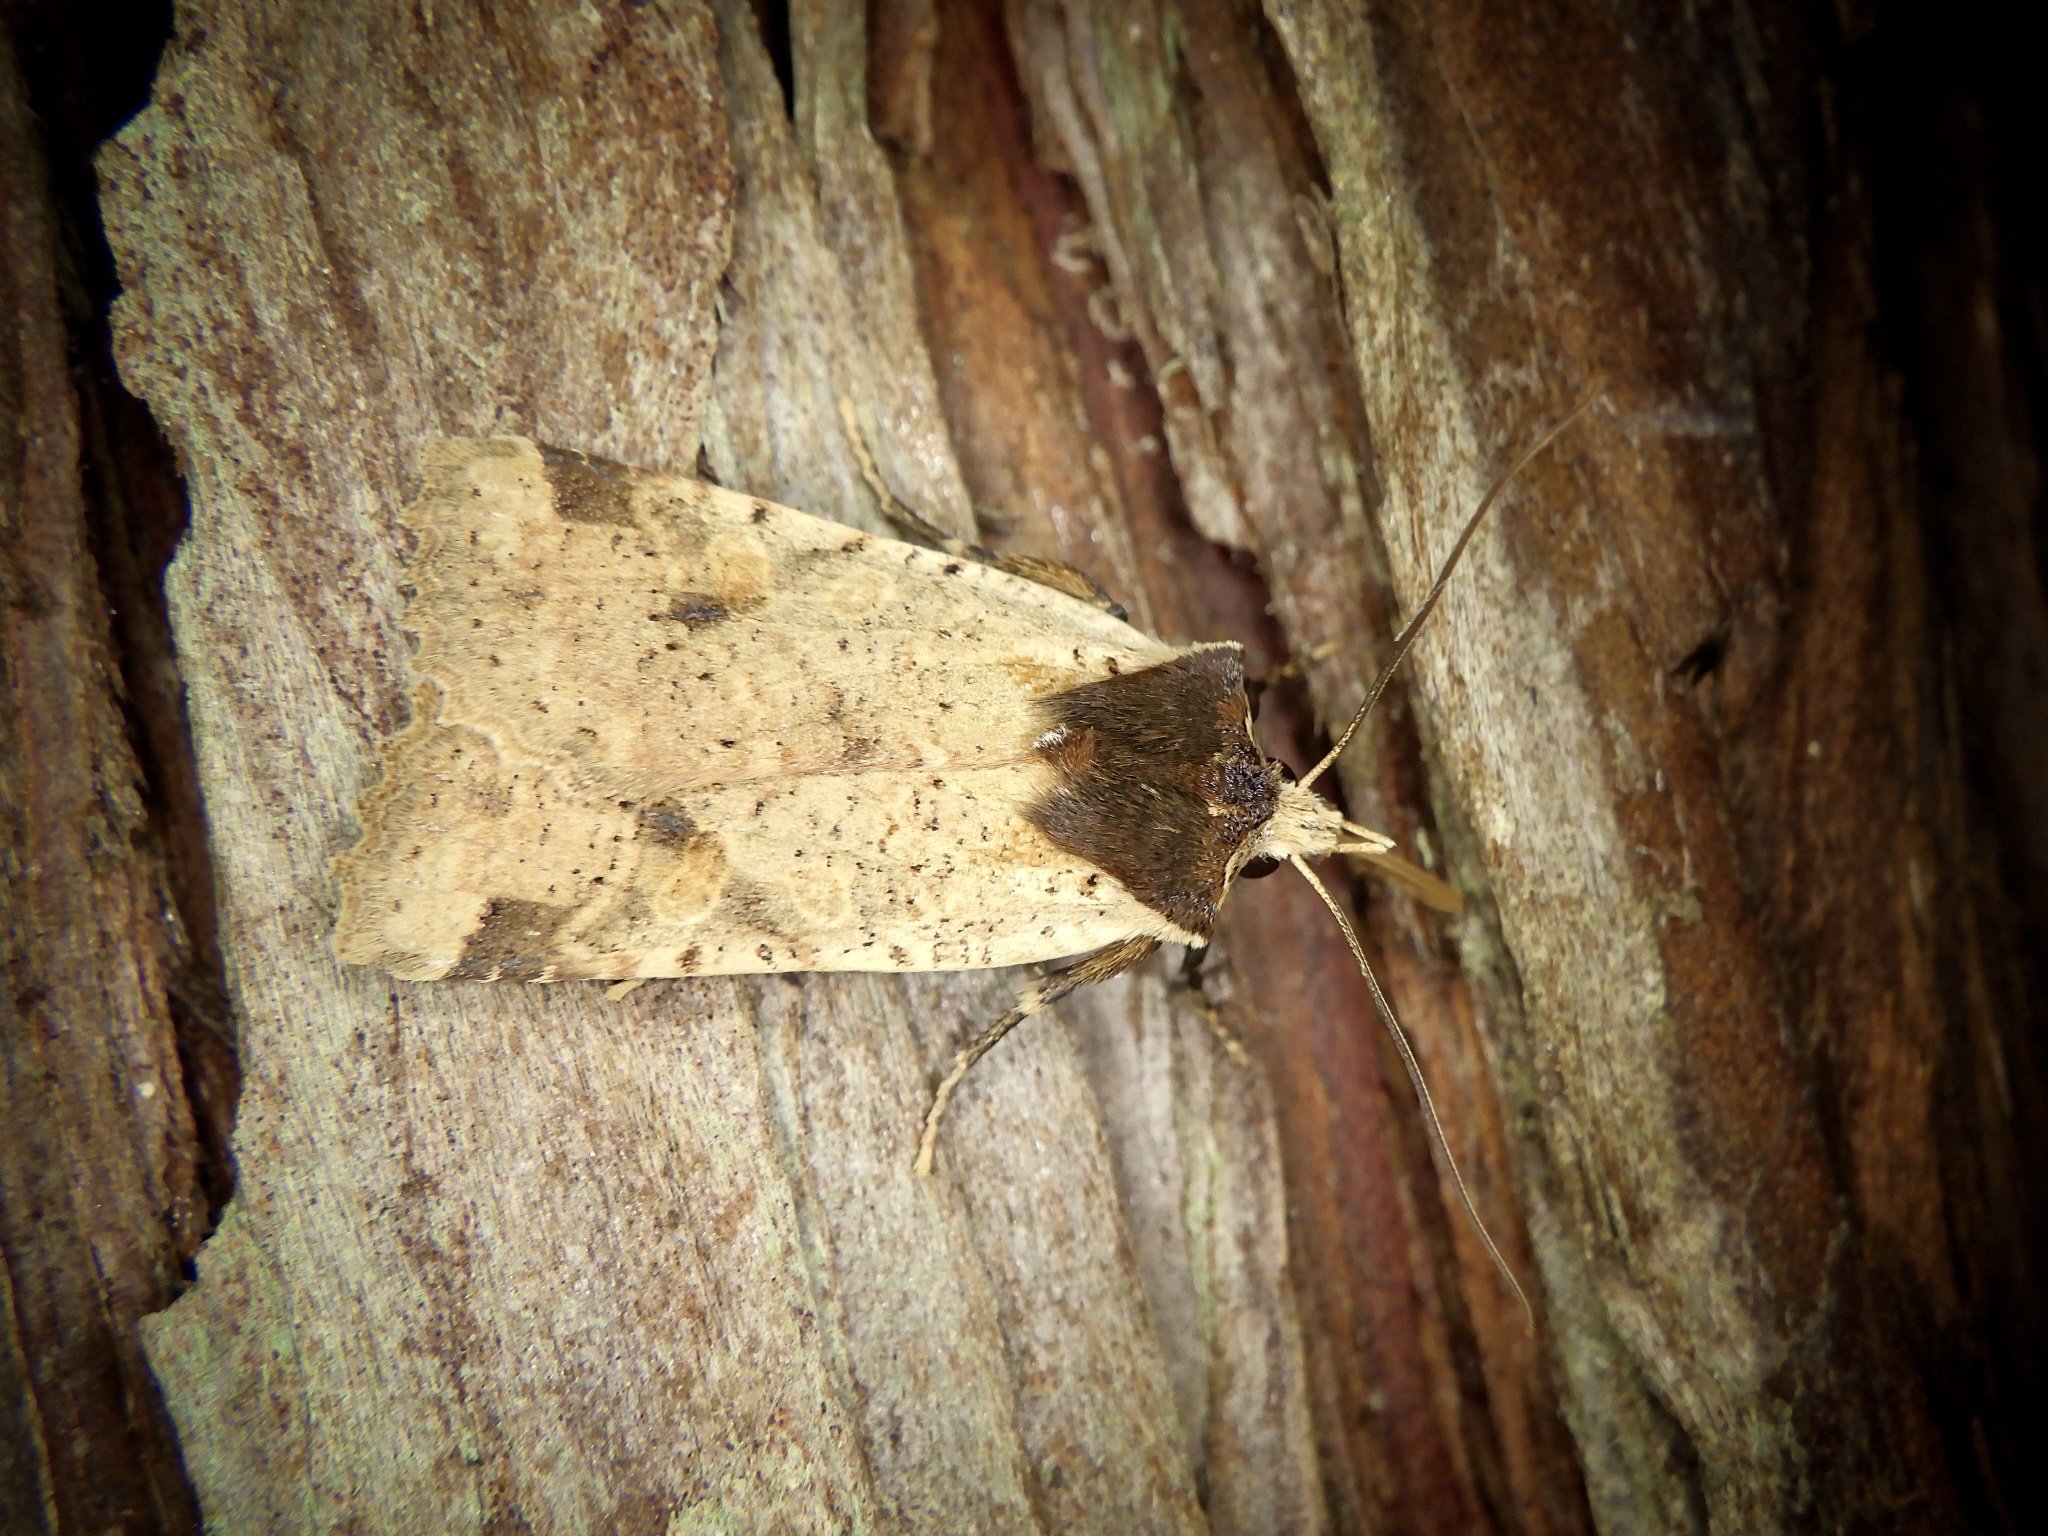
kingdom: Animalia
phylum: Arthropoda
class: Insecta
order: Lepidoptera
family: Noctuidae
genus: Rhynchaglaea
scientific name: Rhynchaglaea scitula
